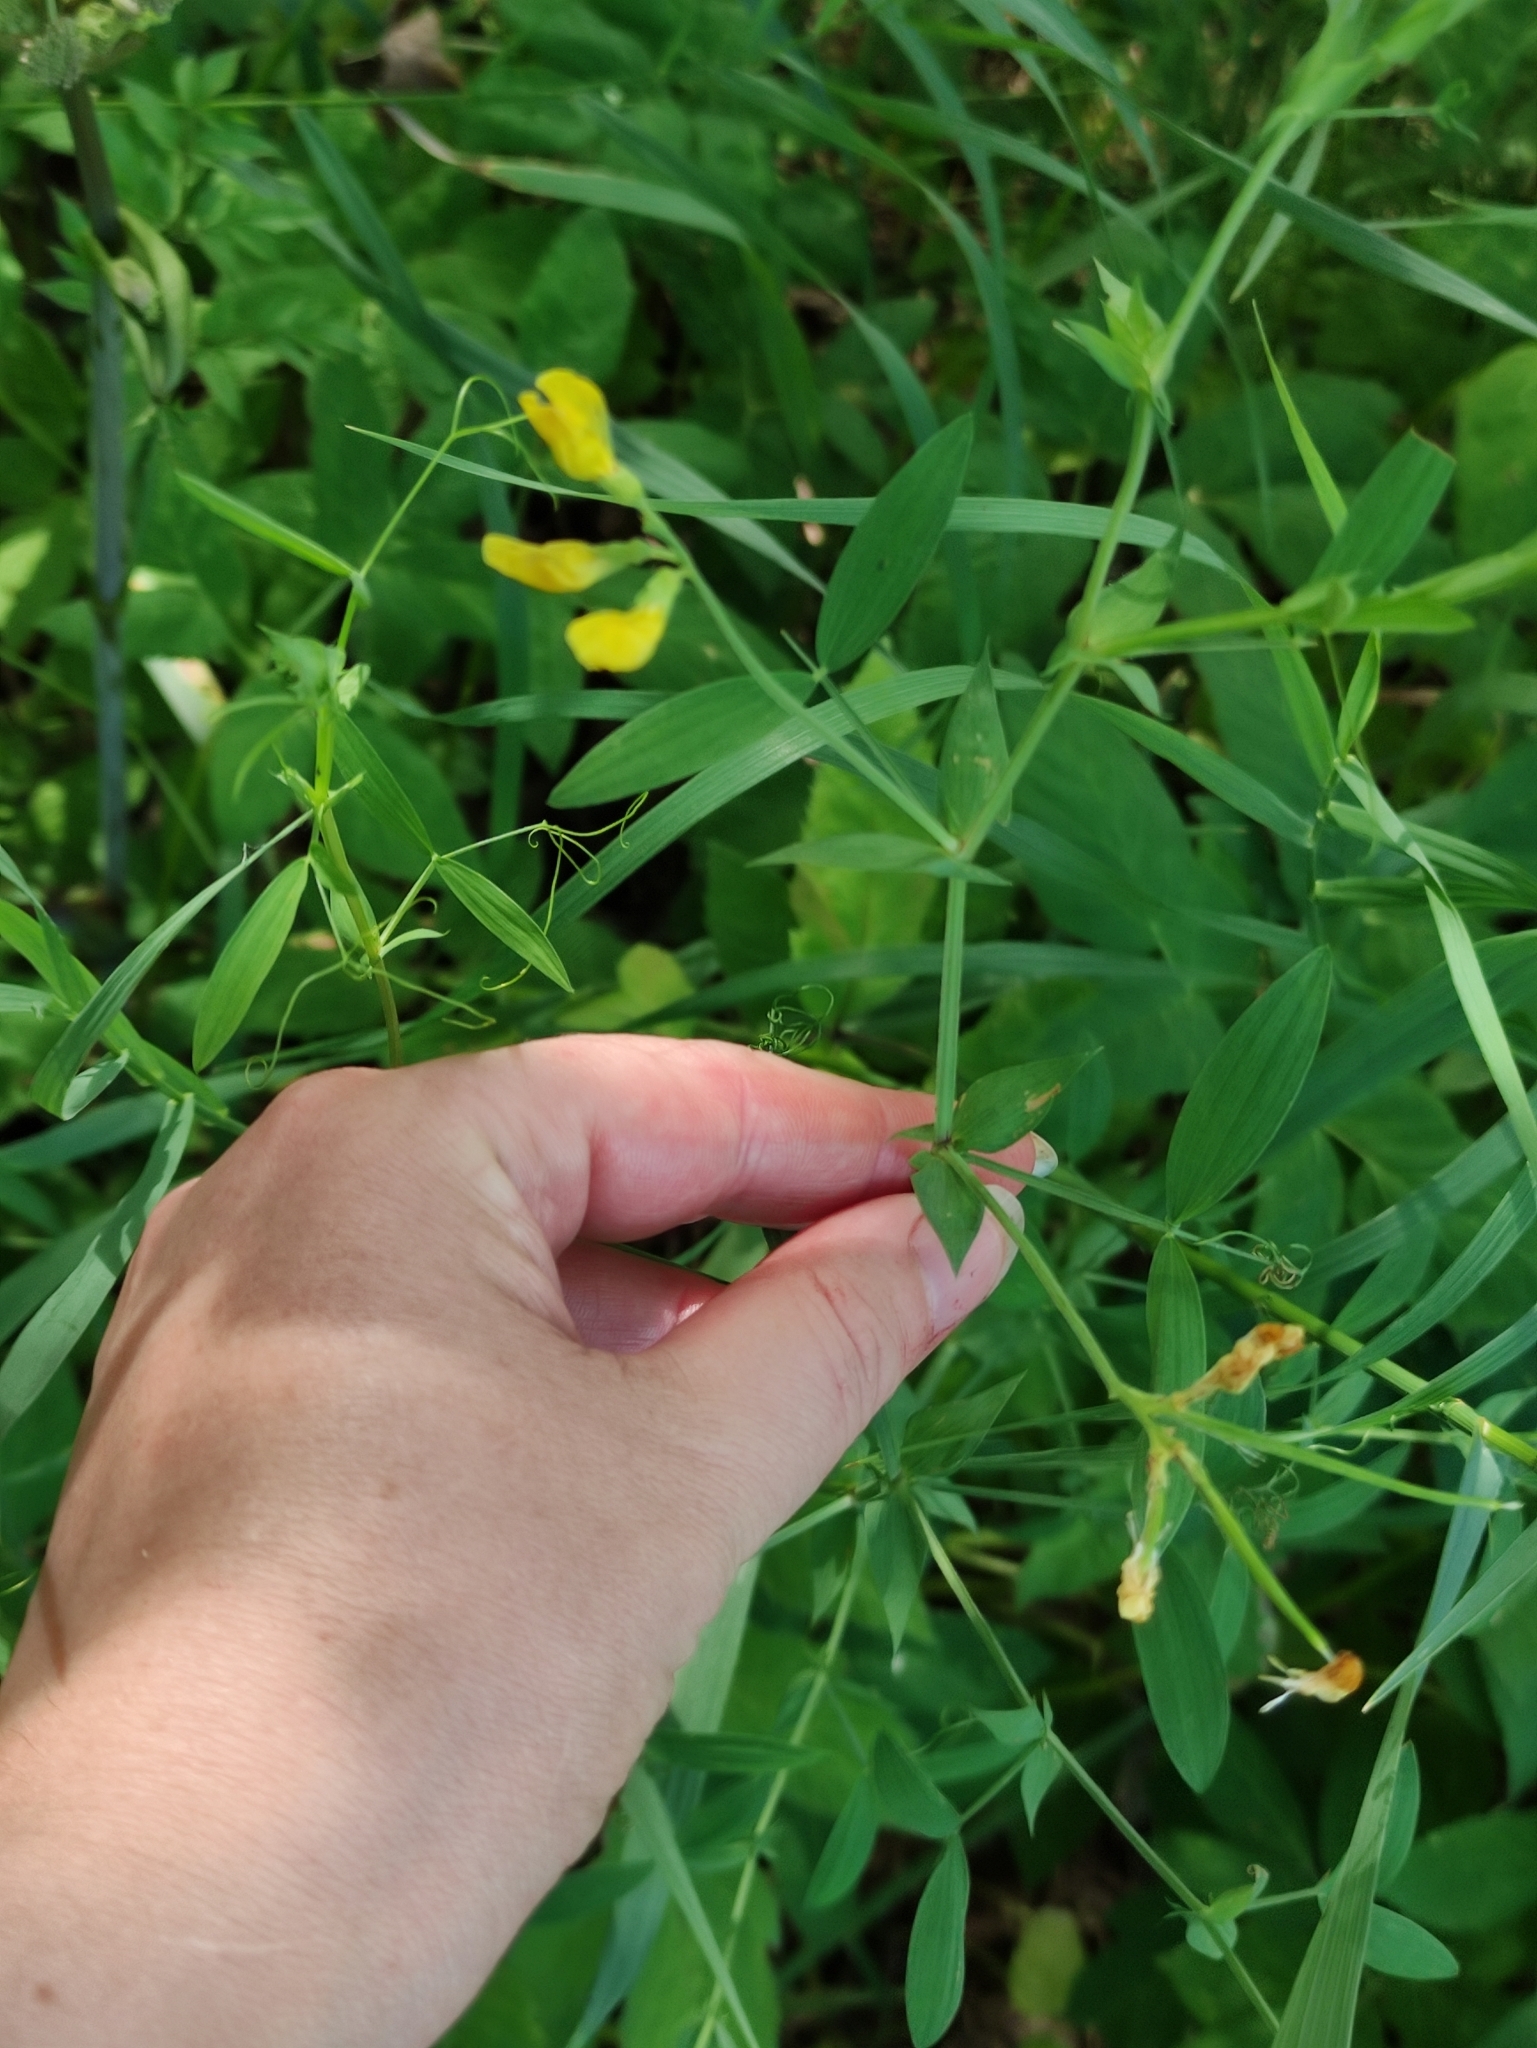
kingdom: Plantae
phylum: Tracheophyta
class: Magnoliopsida
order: Fabales
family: Fabaceae
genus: Lathyrus
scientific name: Lathyrus pratensis
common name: Meadow vetchling
